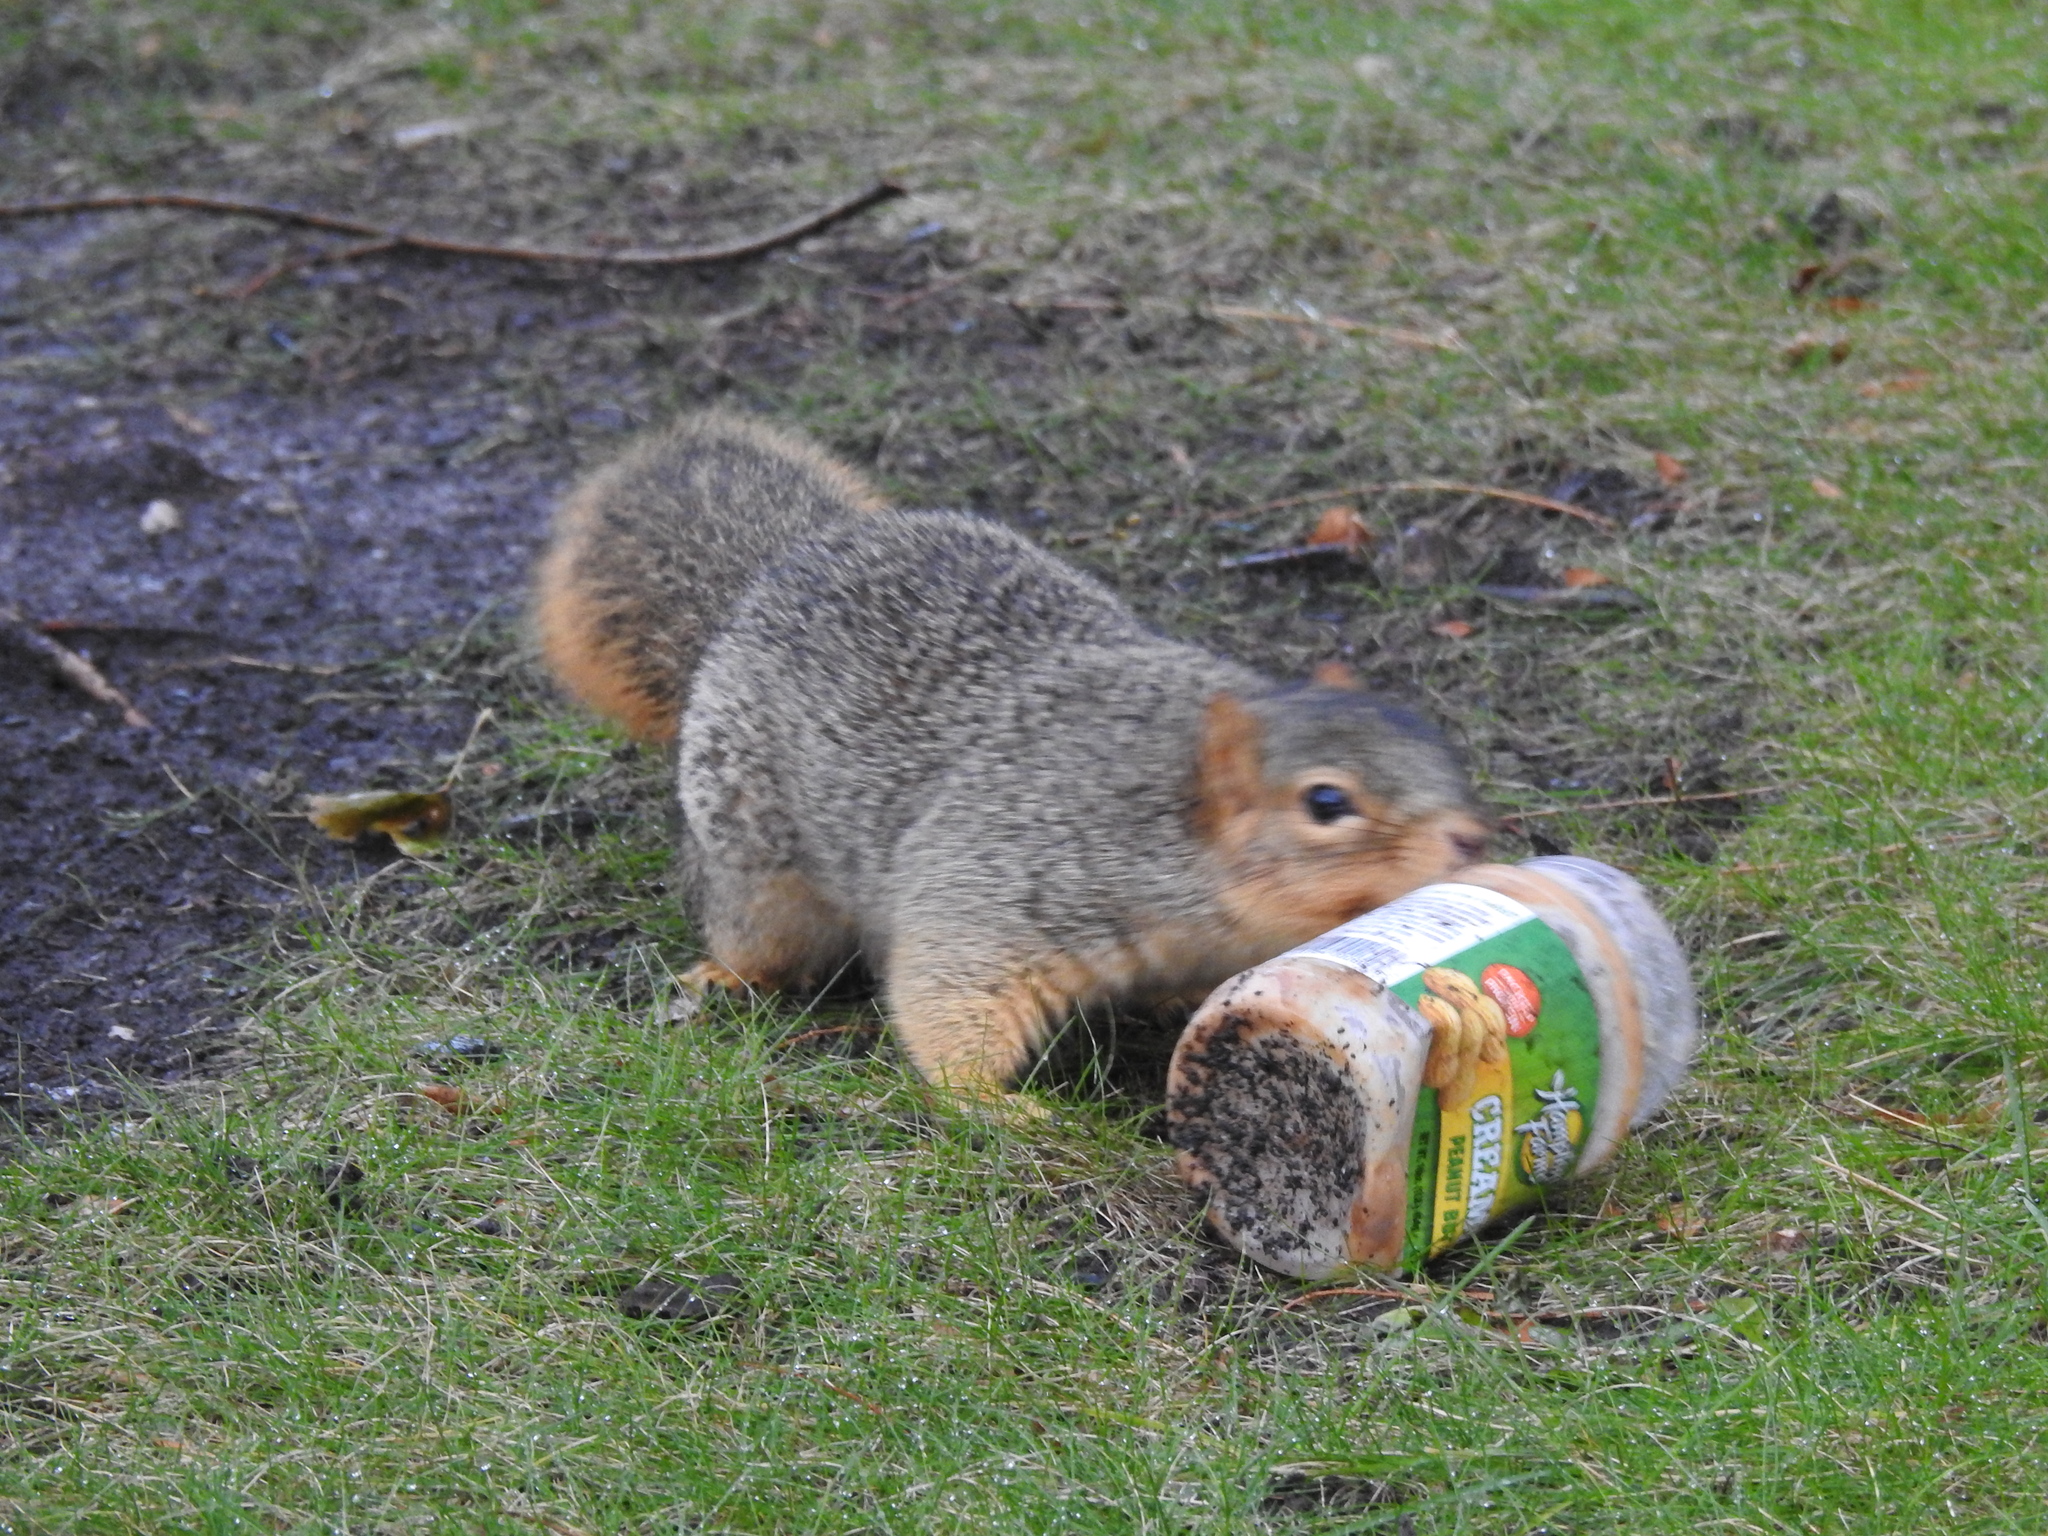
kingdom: Animalia
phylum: Chordata
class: Mammalia
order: Rodentia
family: Sciuridae
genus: Sciurus
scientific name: Sciurus niger
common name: Fox squirrel
